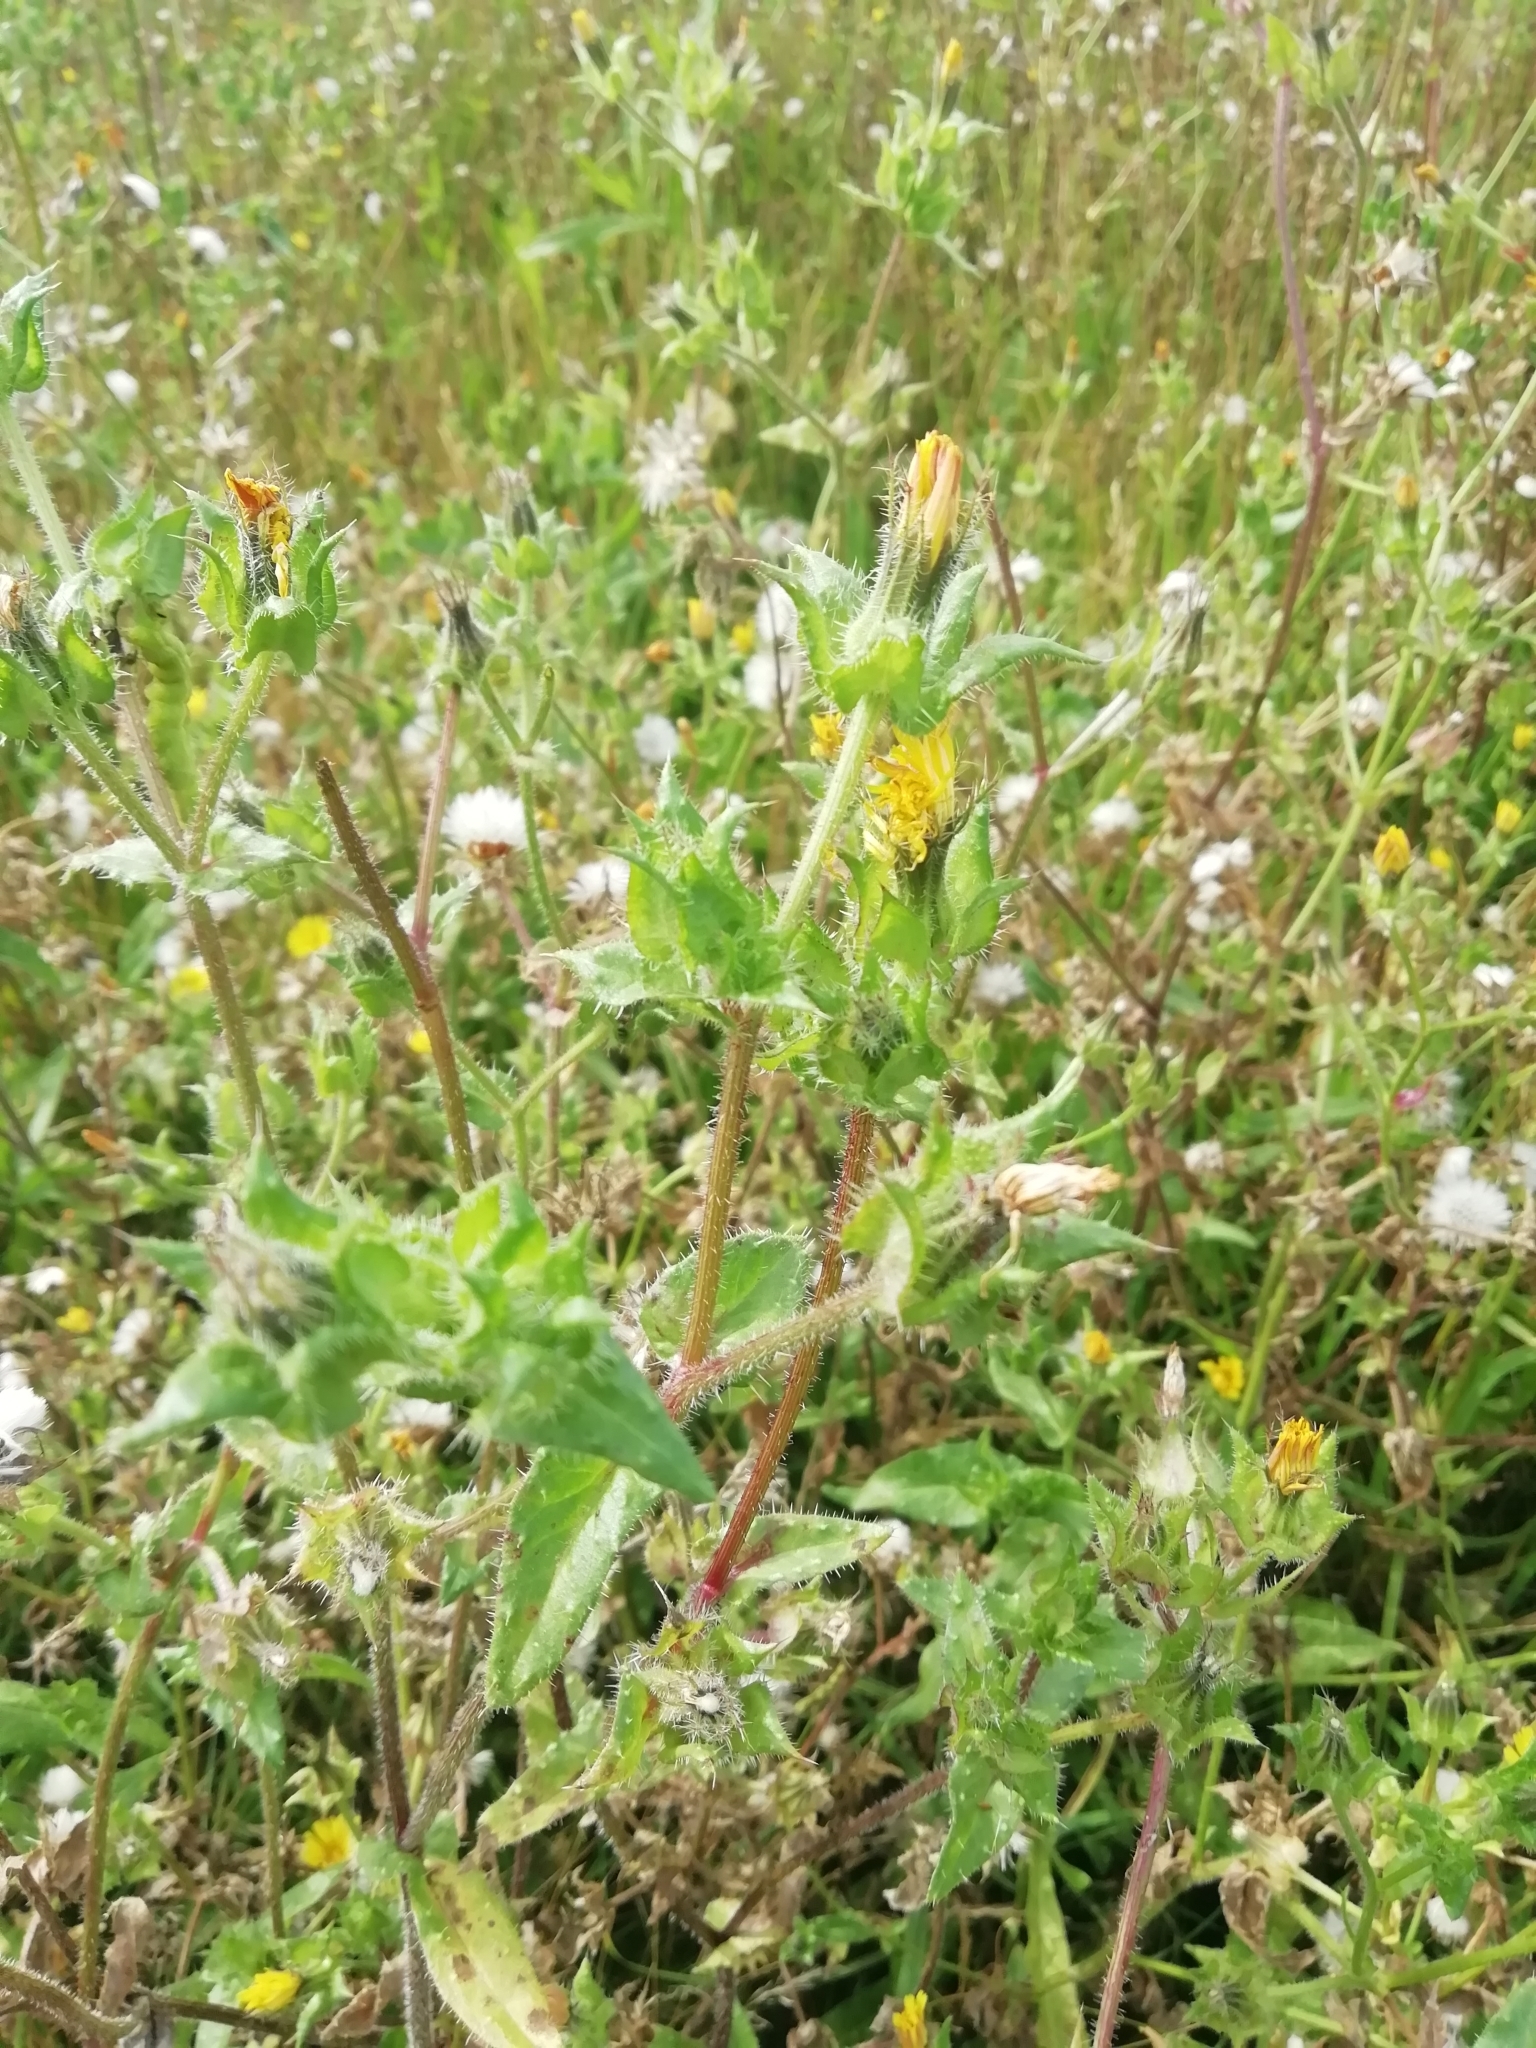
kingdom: Plantae
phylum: Tracheophyta
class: Magnoliopsida
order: Asterales
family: Asteraceae
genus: Helminthotheca
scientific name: Helminthotheca echioides
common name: Ox-tongue
